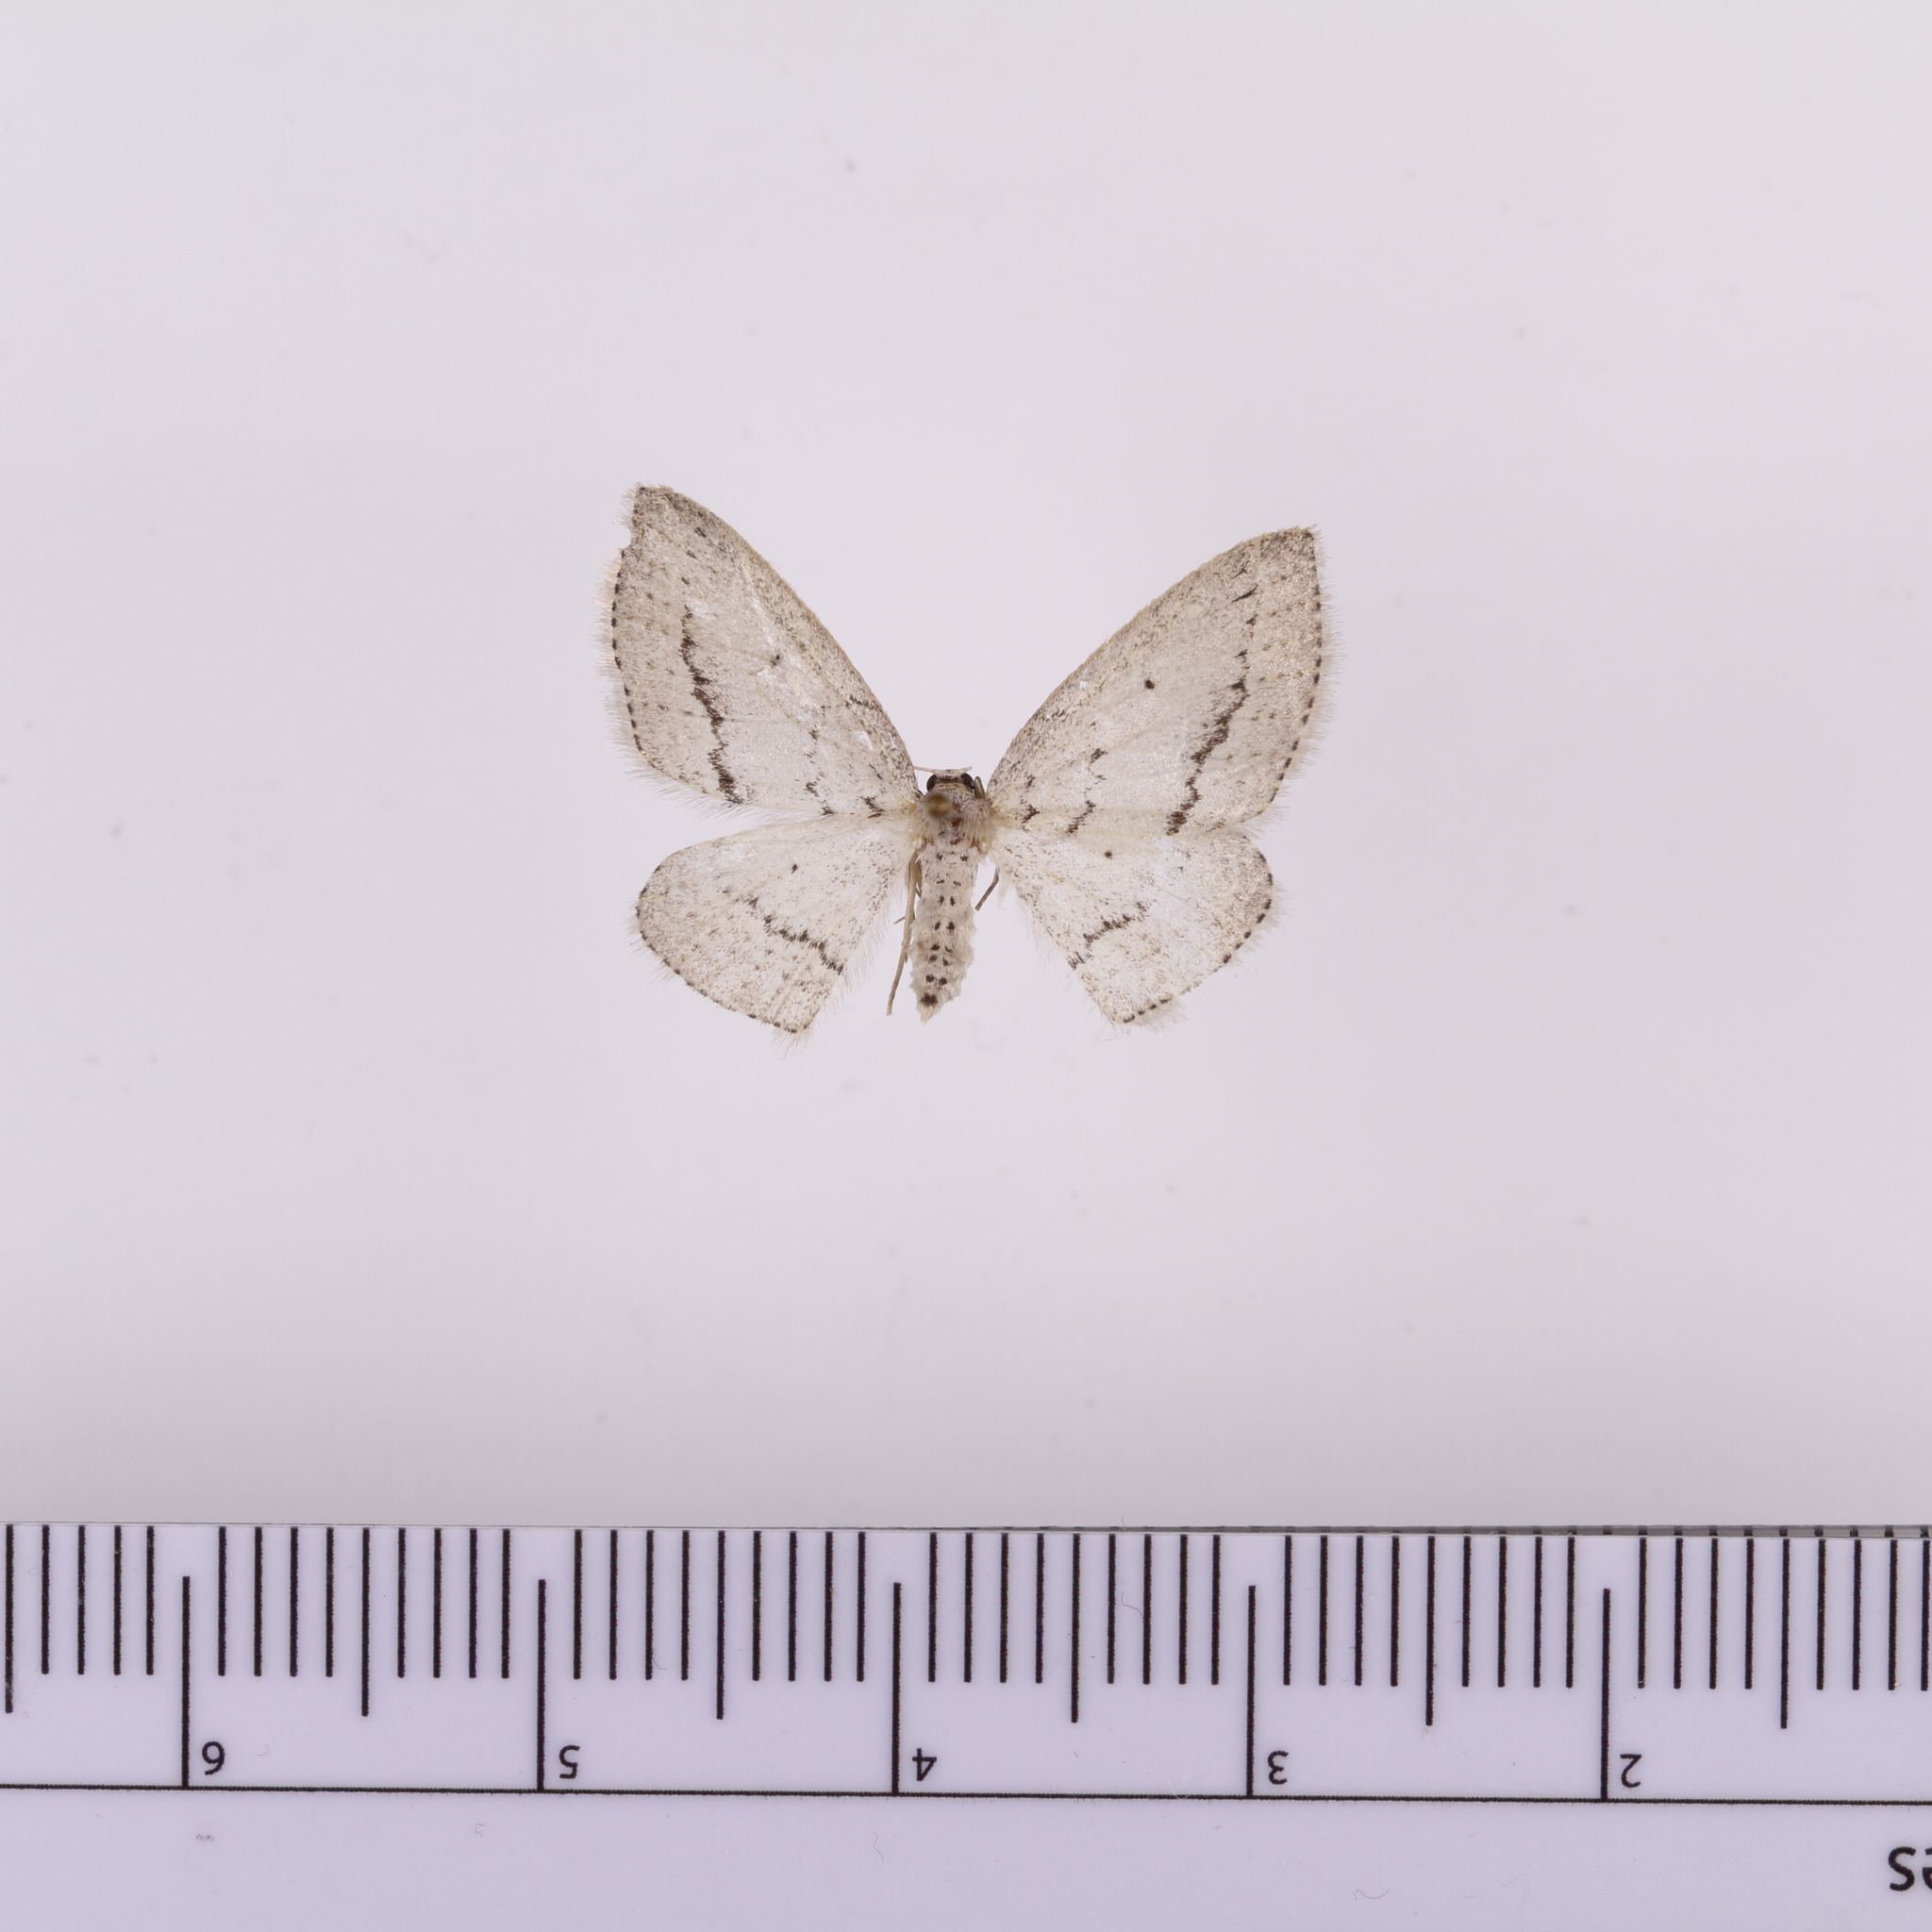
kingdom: Animalia
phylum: Arthropoda
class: Insecta
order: Lepidoptera
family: Geometridae
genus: Poecilasthena
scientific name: Poecilasthena schistaria
